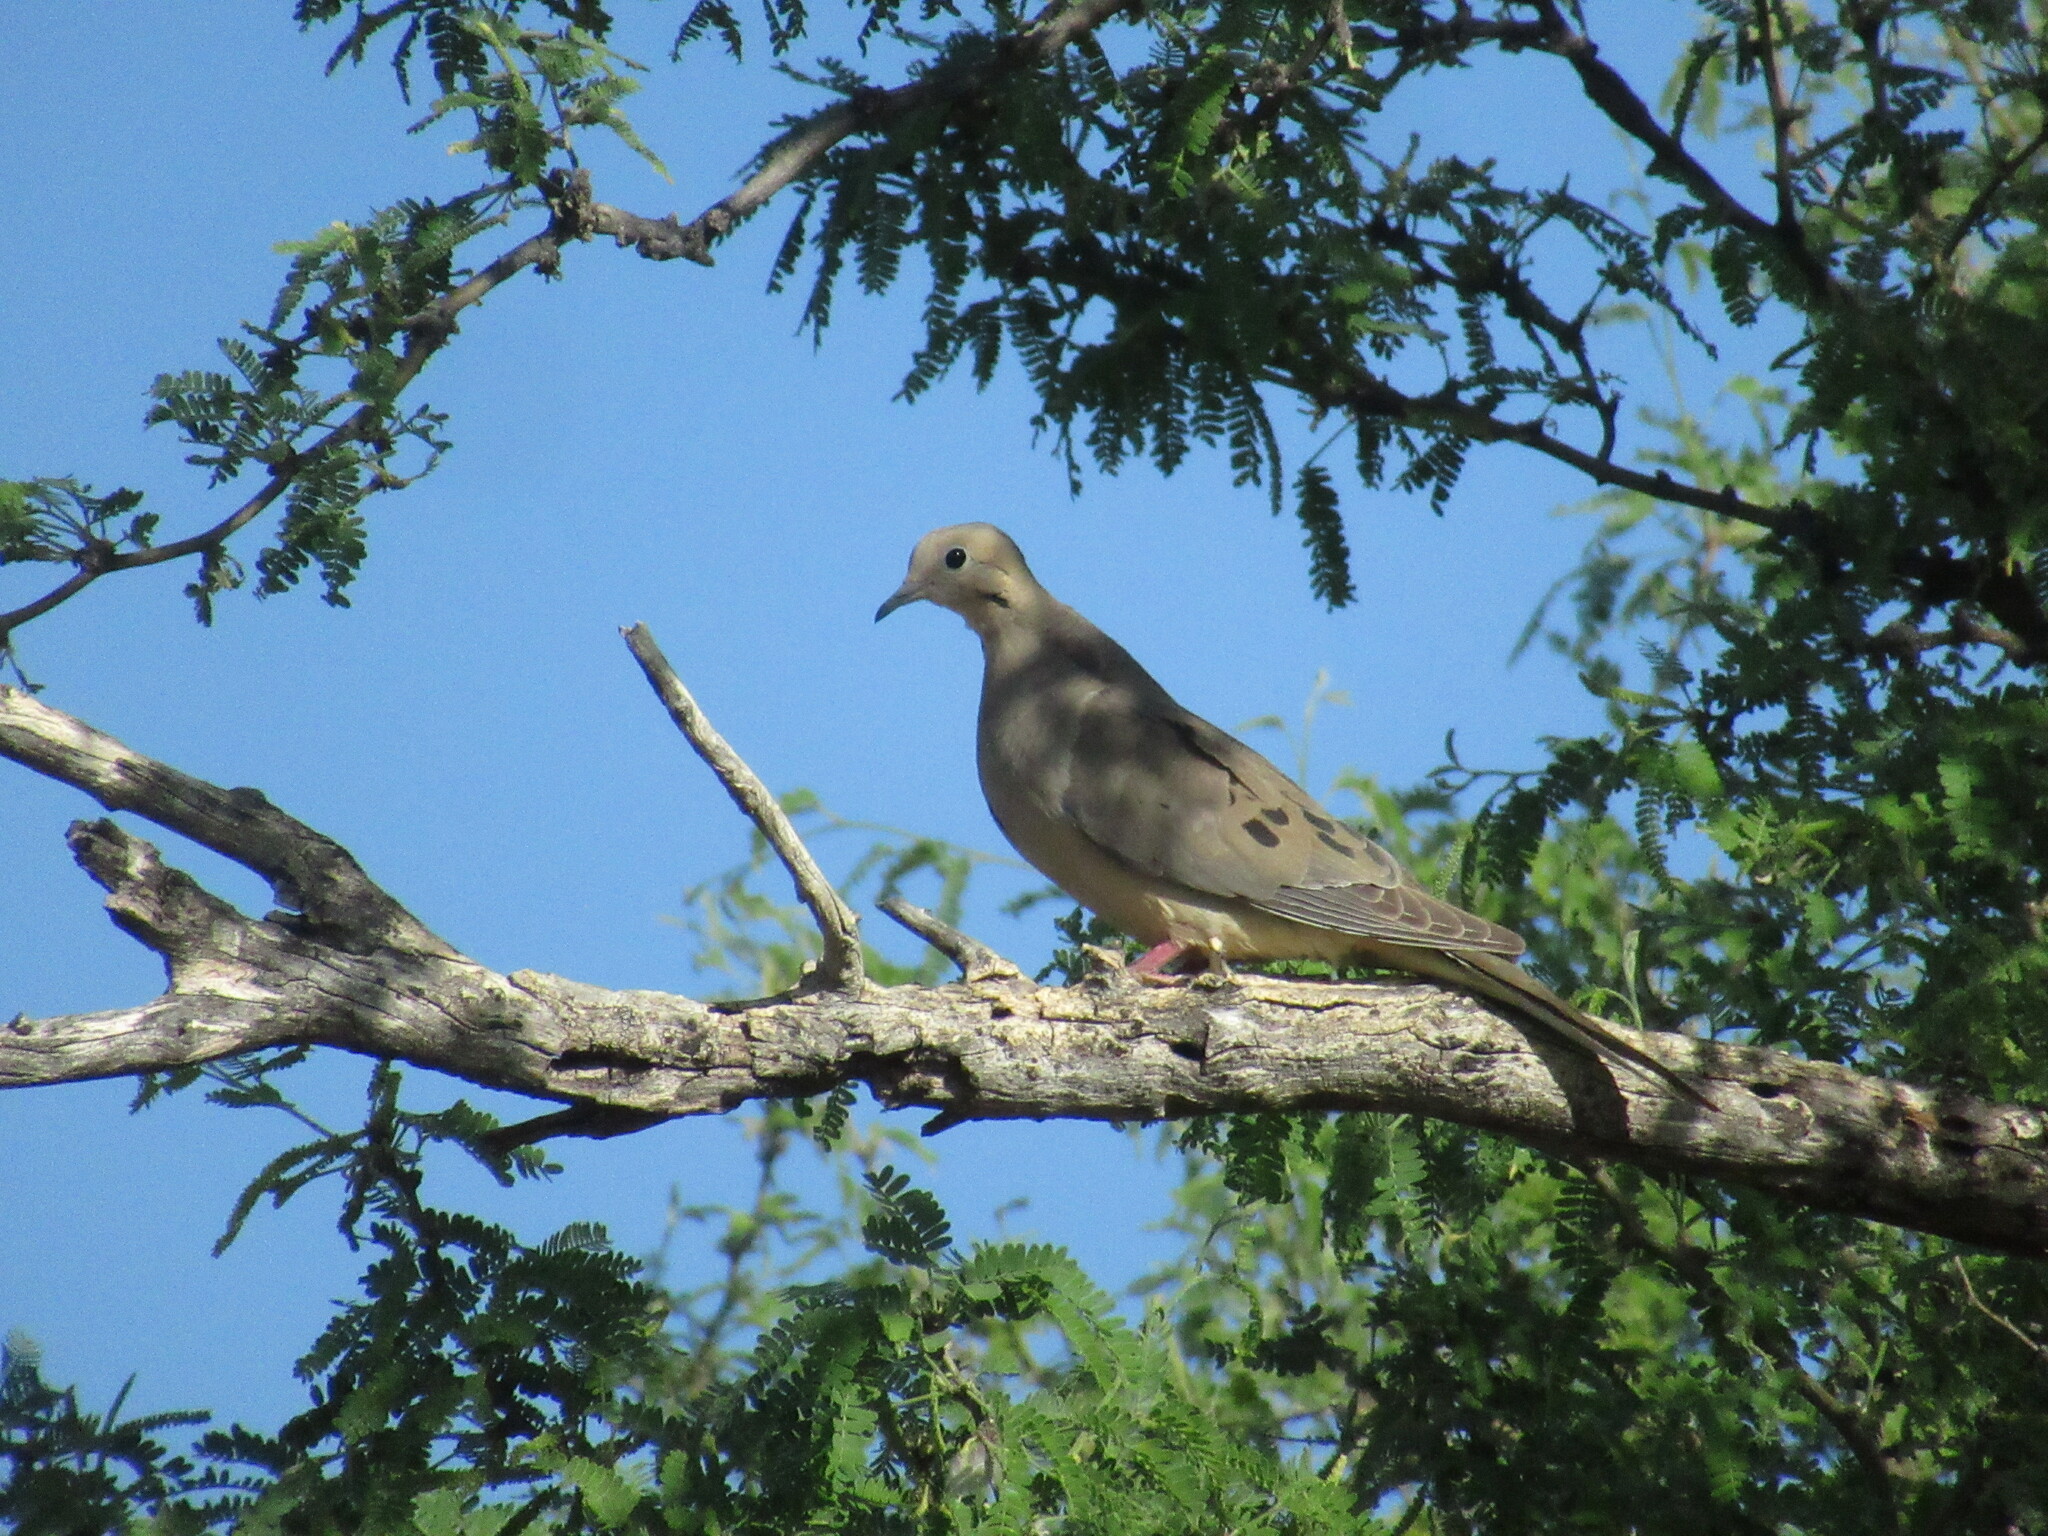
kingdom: Animalia
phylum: Chordata
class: Aves
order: Columbiformes
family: Columbidae
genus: Zenaida
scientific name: Zenaida macroura
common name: Mourning dove
